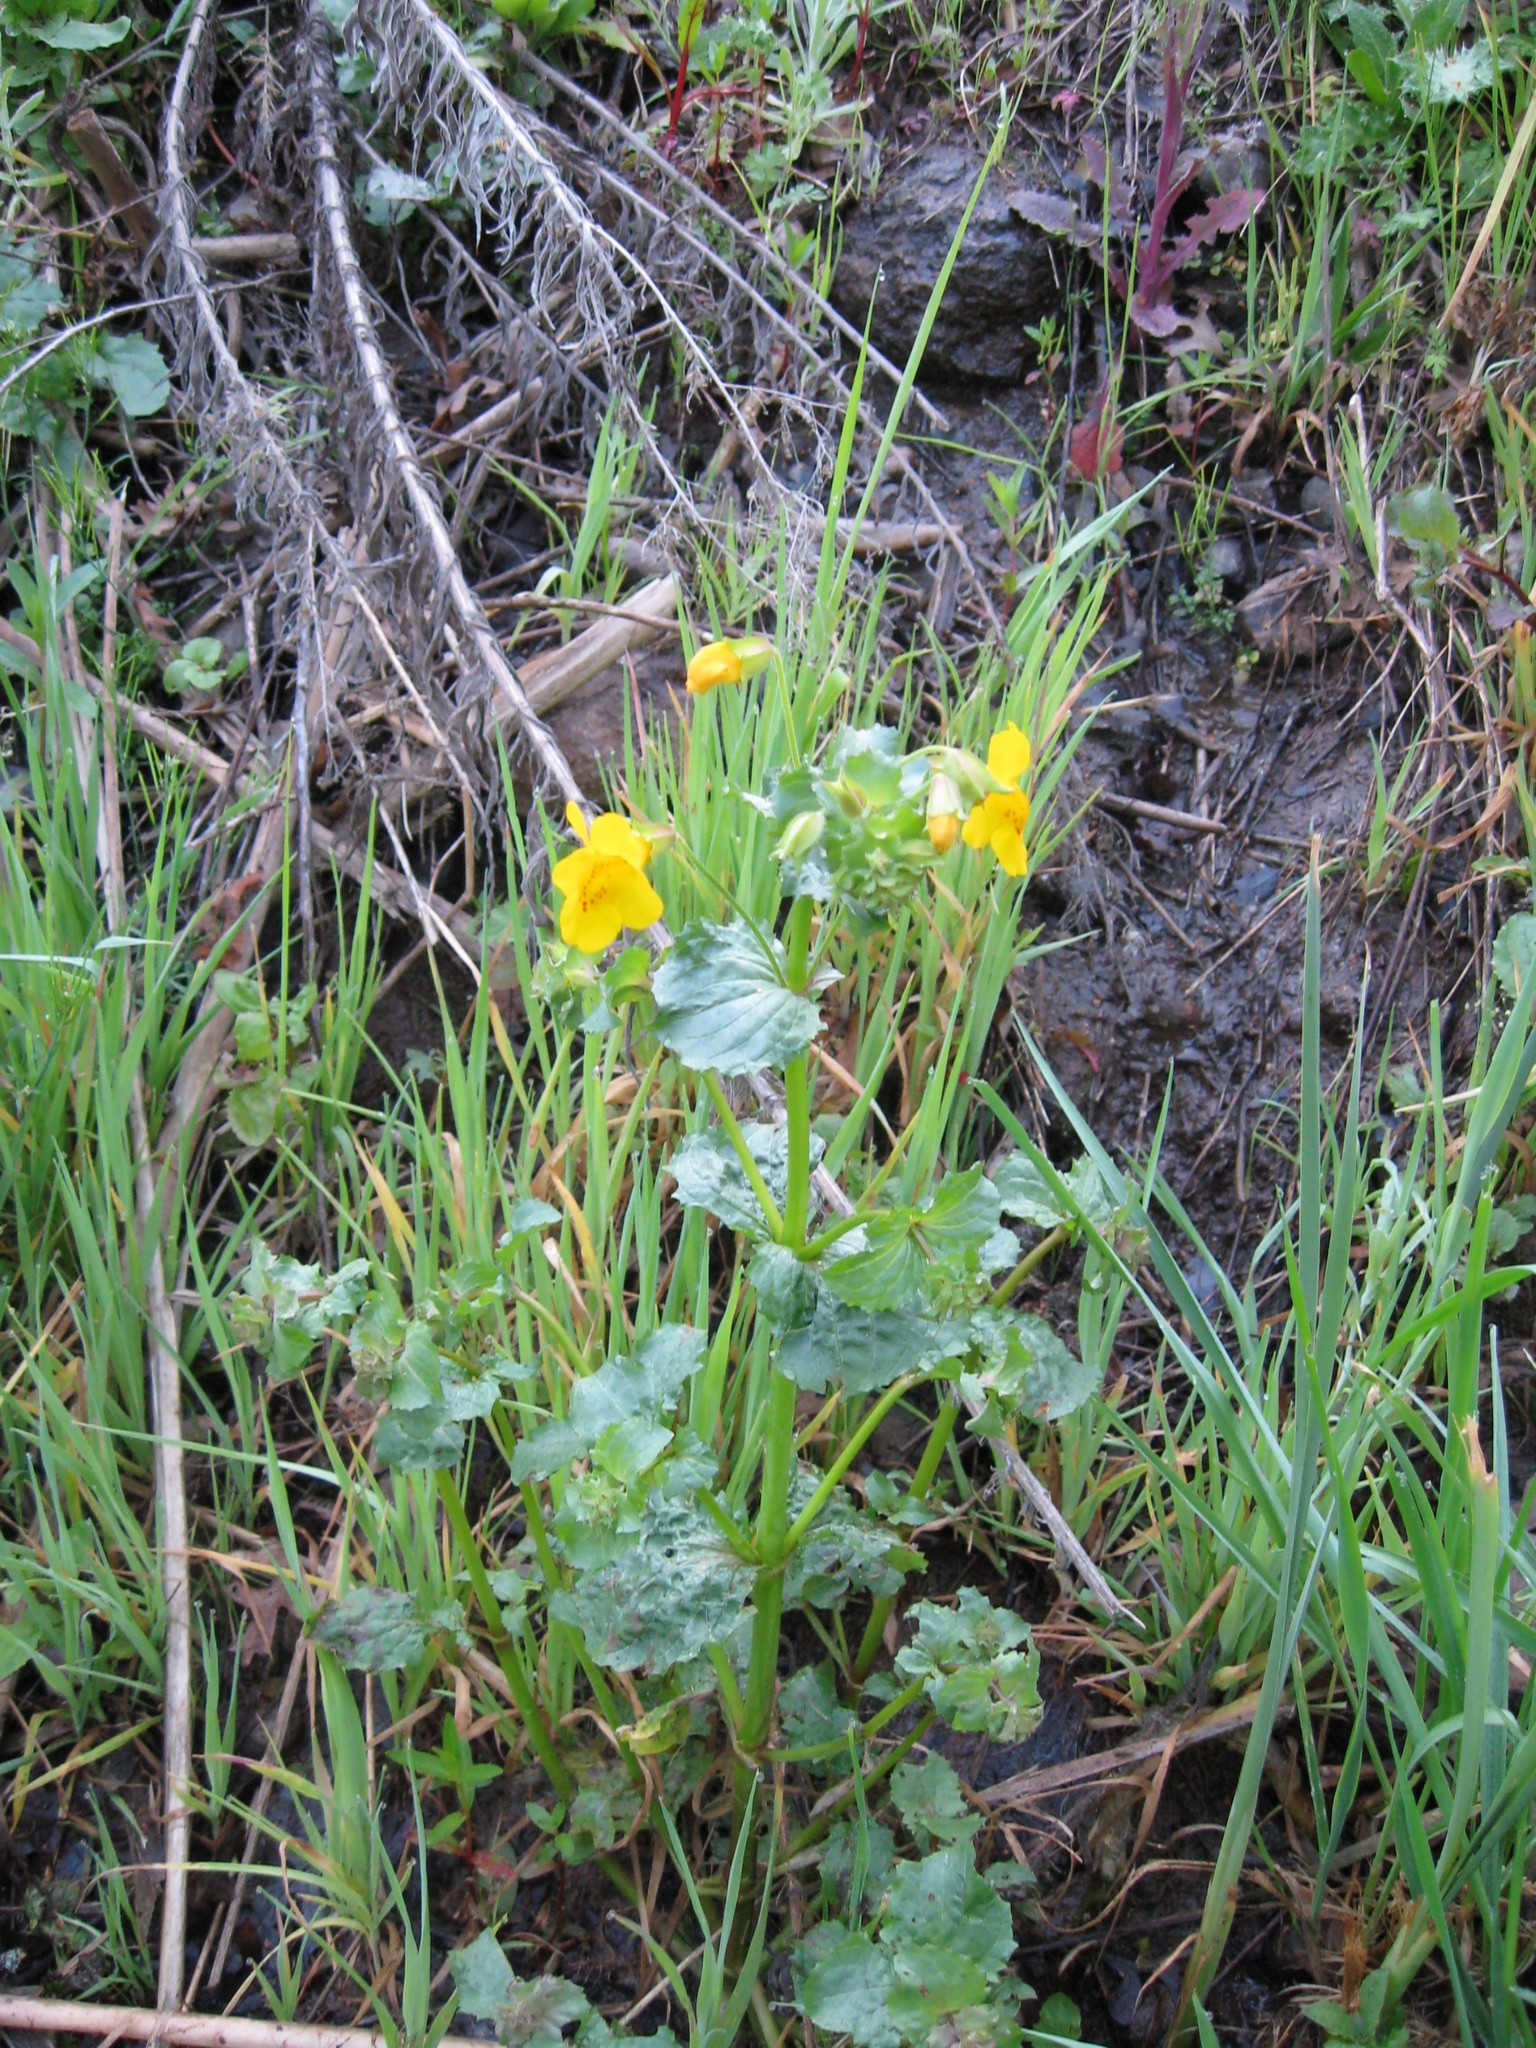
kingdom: Plantae
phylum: Tracheophyta
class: Magnoliopsida
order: Lamiales
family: Phrymaceae
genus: Erythranthe
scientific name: Erythranthe guttata
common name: Monkeyflower
